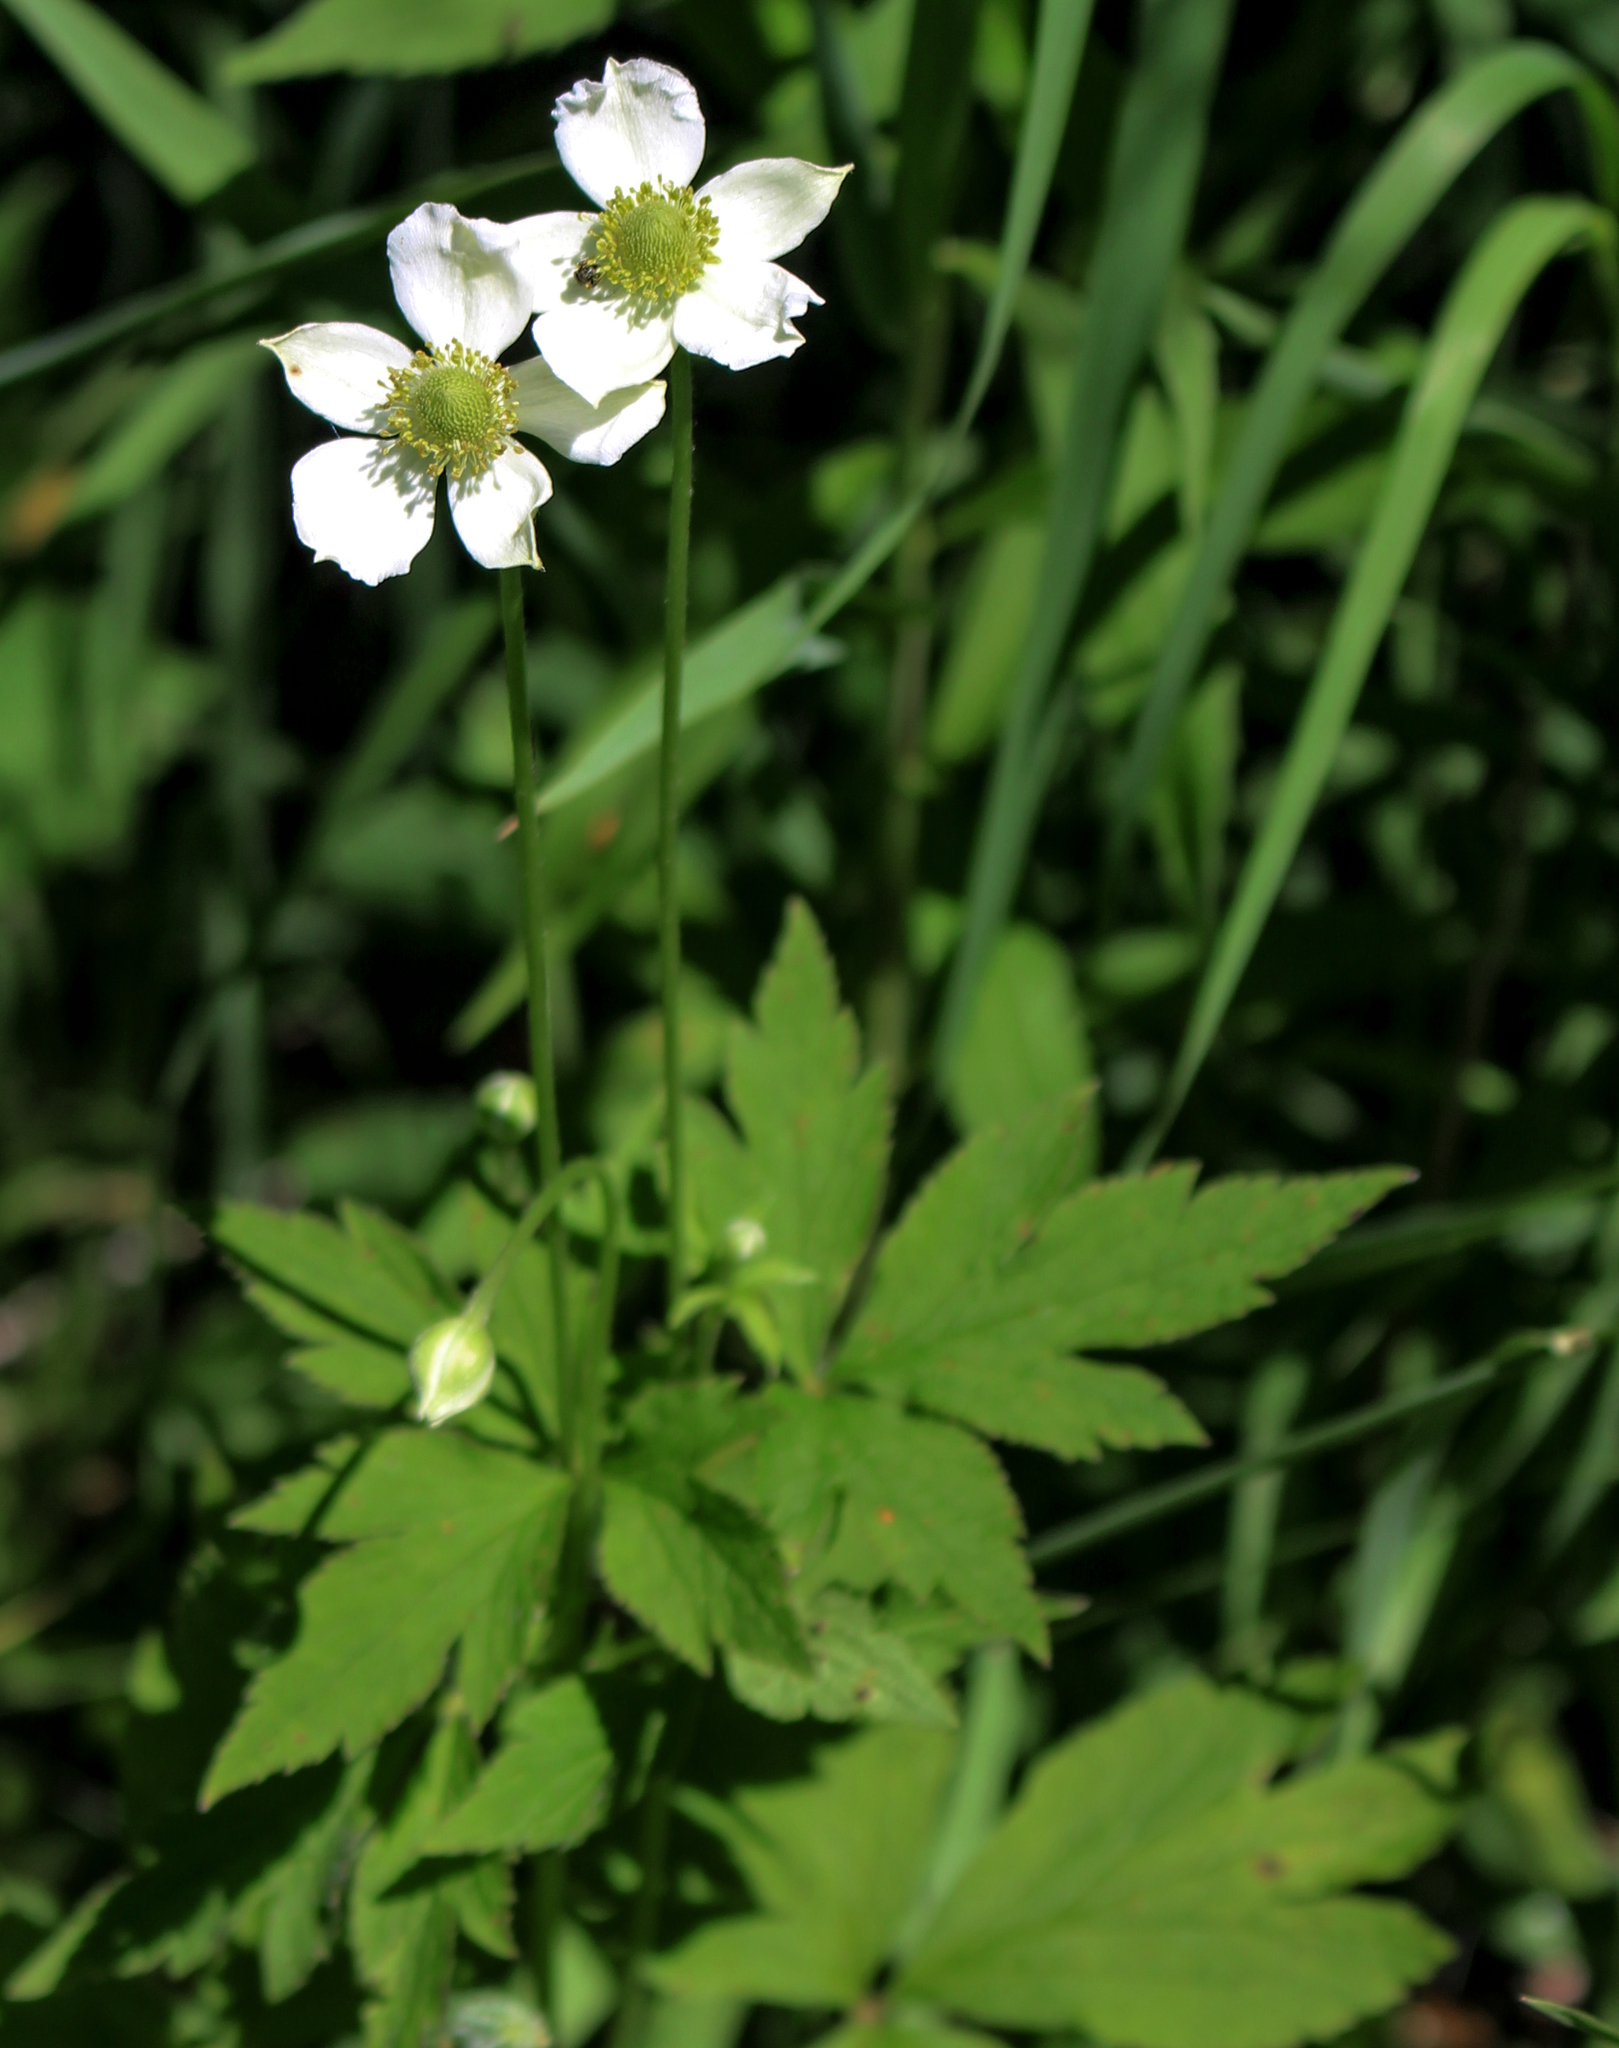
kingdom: Plantae
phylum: Tracheophyta
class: Magnoliopsida
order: Ranunculales
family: Ranunculaceae
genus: Anemone
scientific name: Anemone virginiana
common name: Tall anemone
